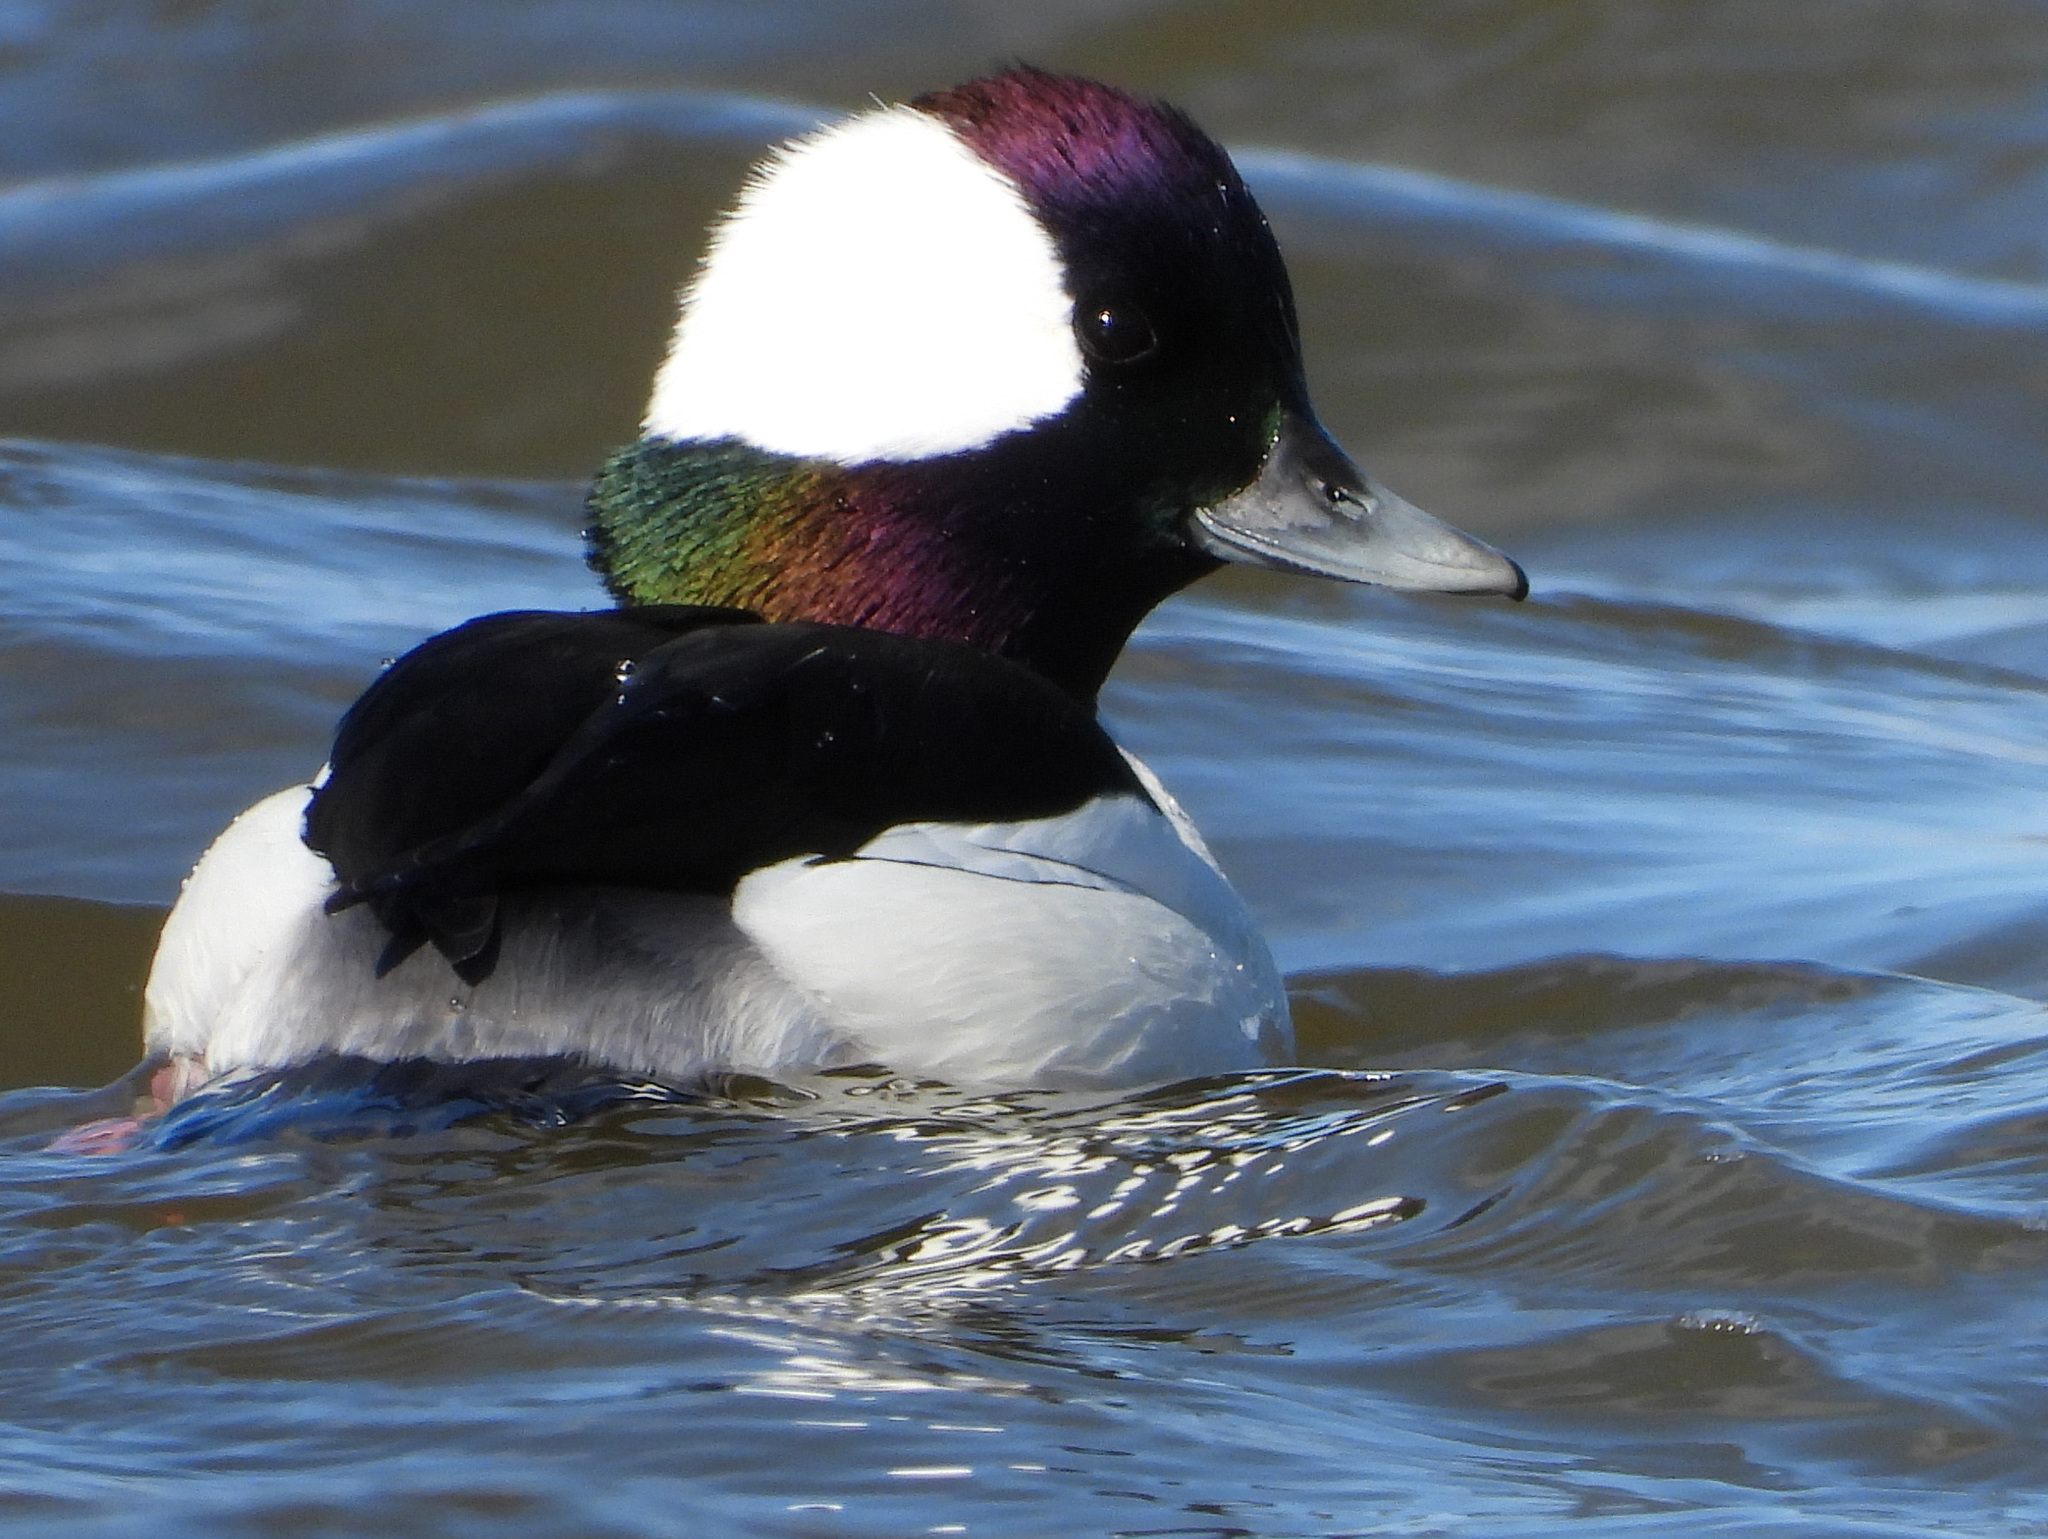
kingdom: Animalia
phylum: Chordata
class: Aves
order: Anseriformes
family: Anatidae
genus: Bucephala
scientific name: Bucephala albeola
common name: Bufflehead
